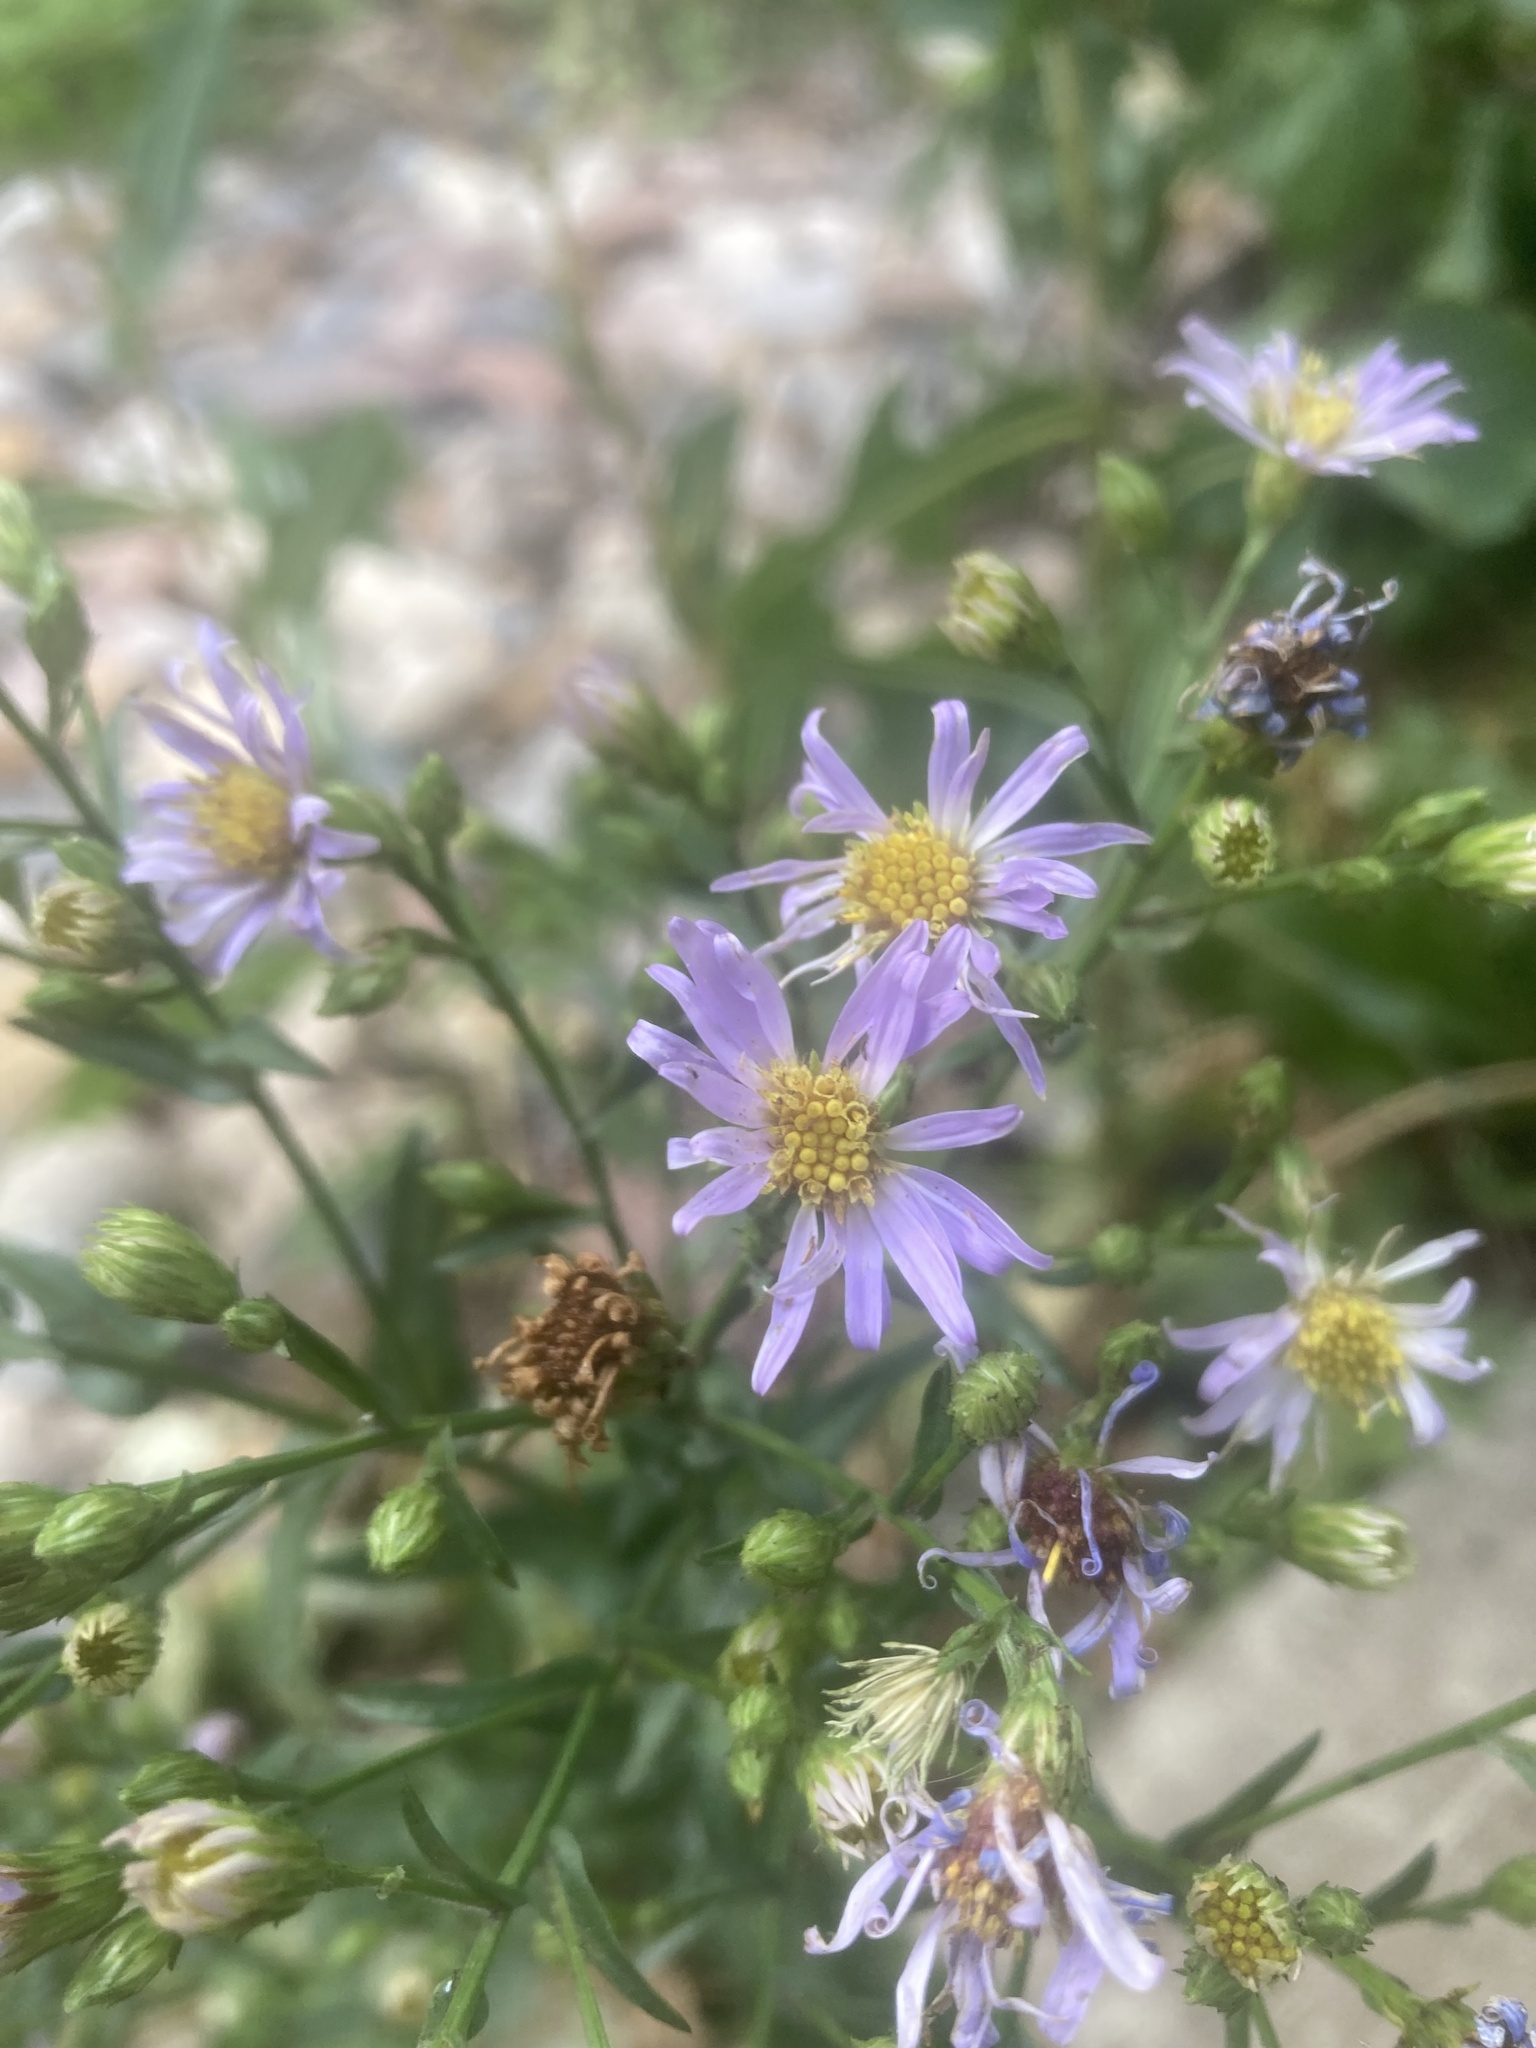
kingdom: Plantae
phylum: Tracheophyta
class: Magnoliopsida
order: Asterales
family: Asteraceae
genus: Symphyotrichum
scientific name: Symphyotrichum laeve
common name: Glaucous aster
